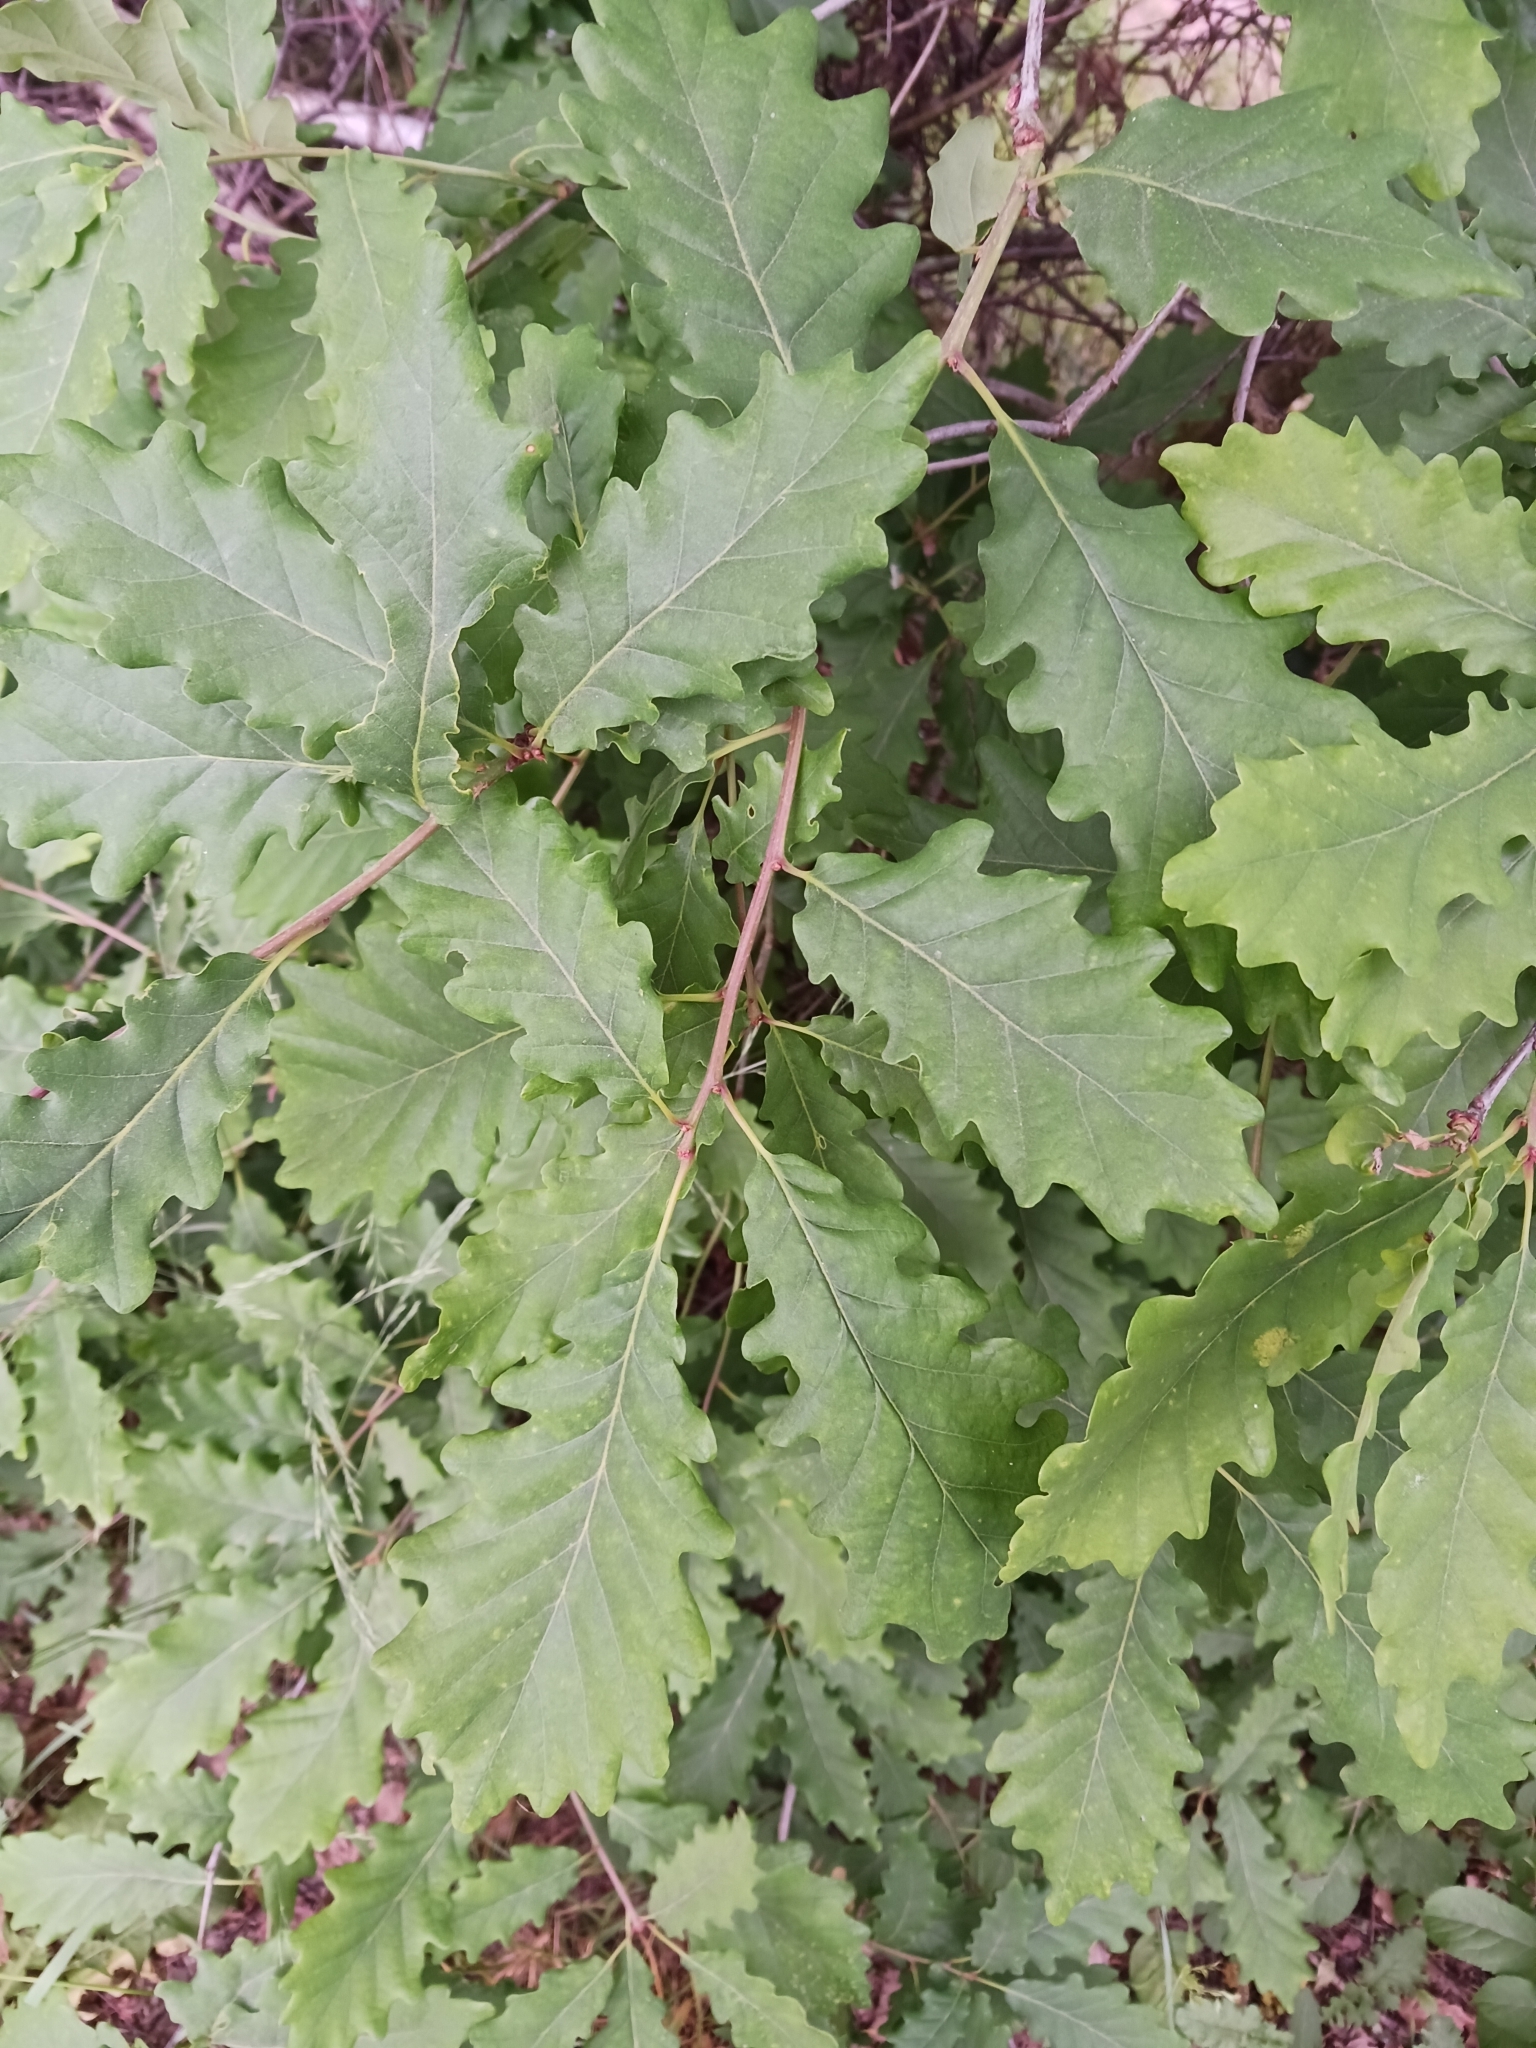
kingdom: Plantae
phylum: Tracheophyta
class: Magnoliopsida
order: Fagales
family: Fagaceae
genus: Quercus
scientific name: Quercus petraea
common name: Sessile oak
